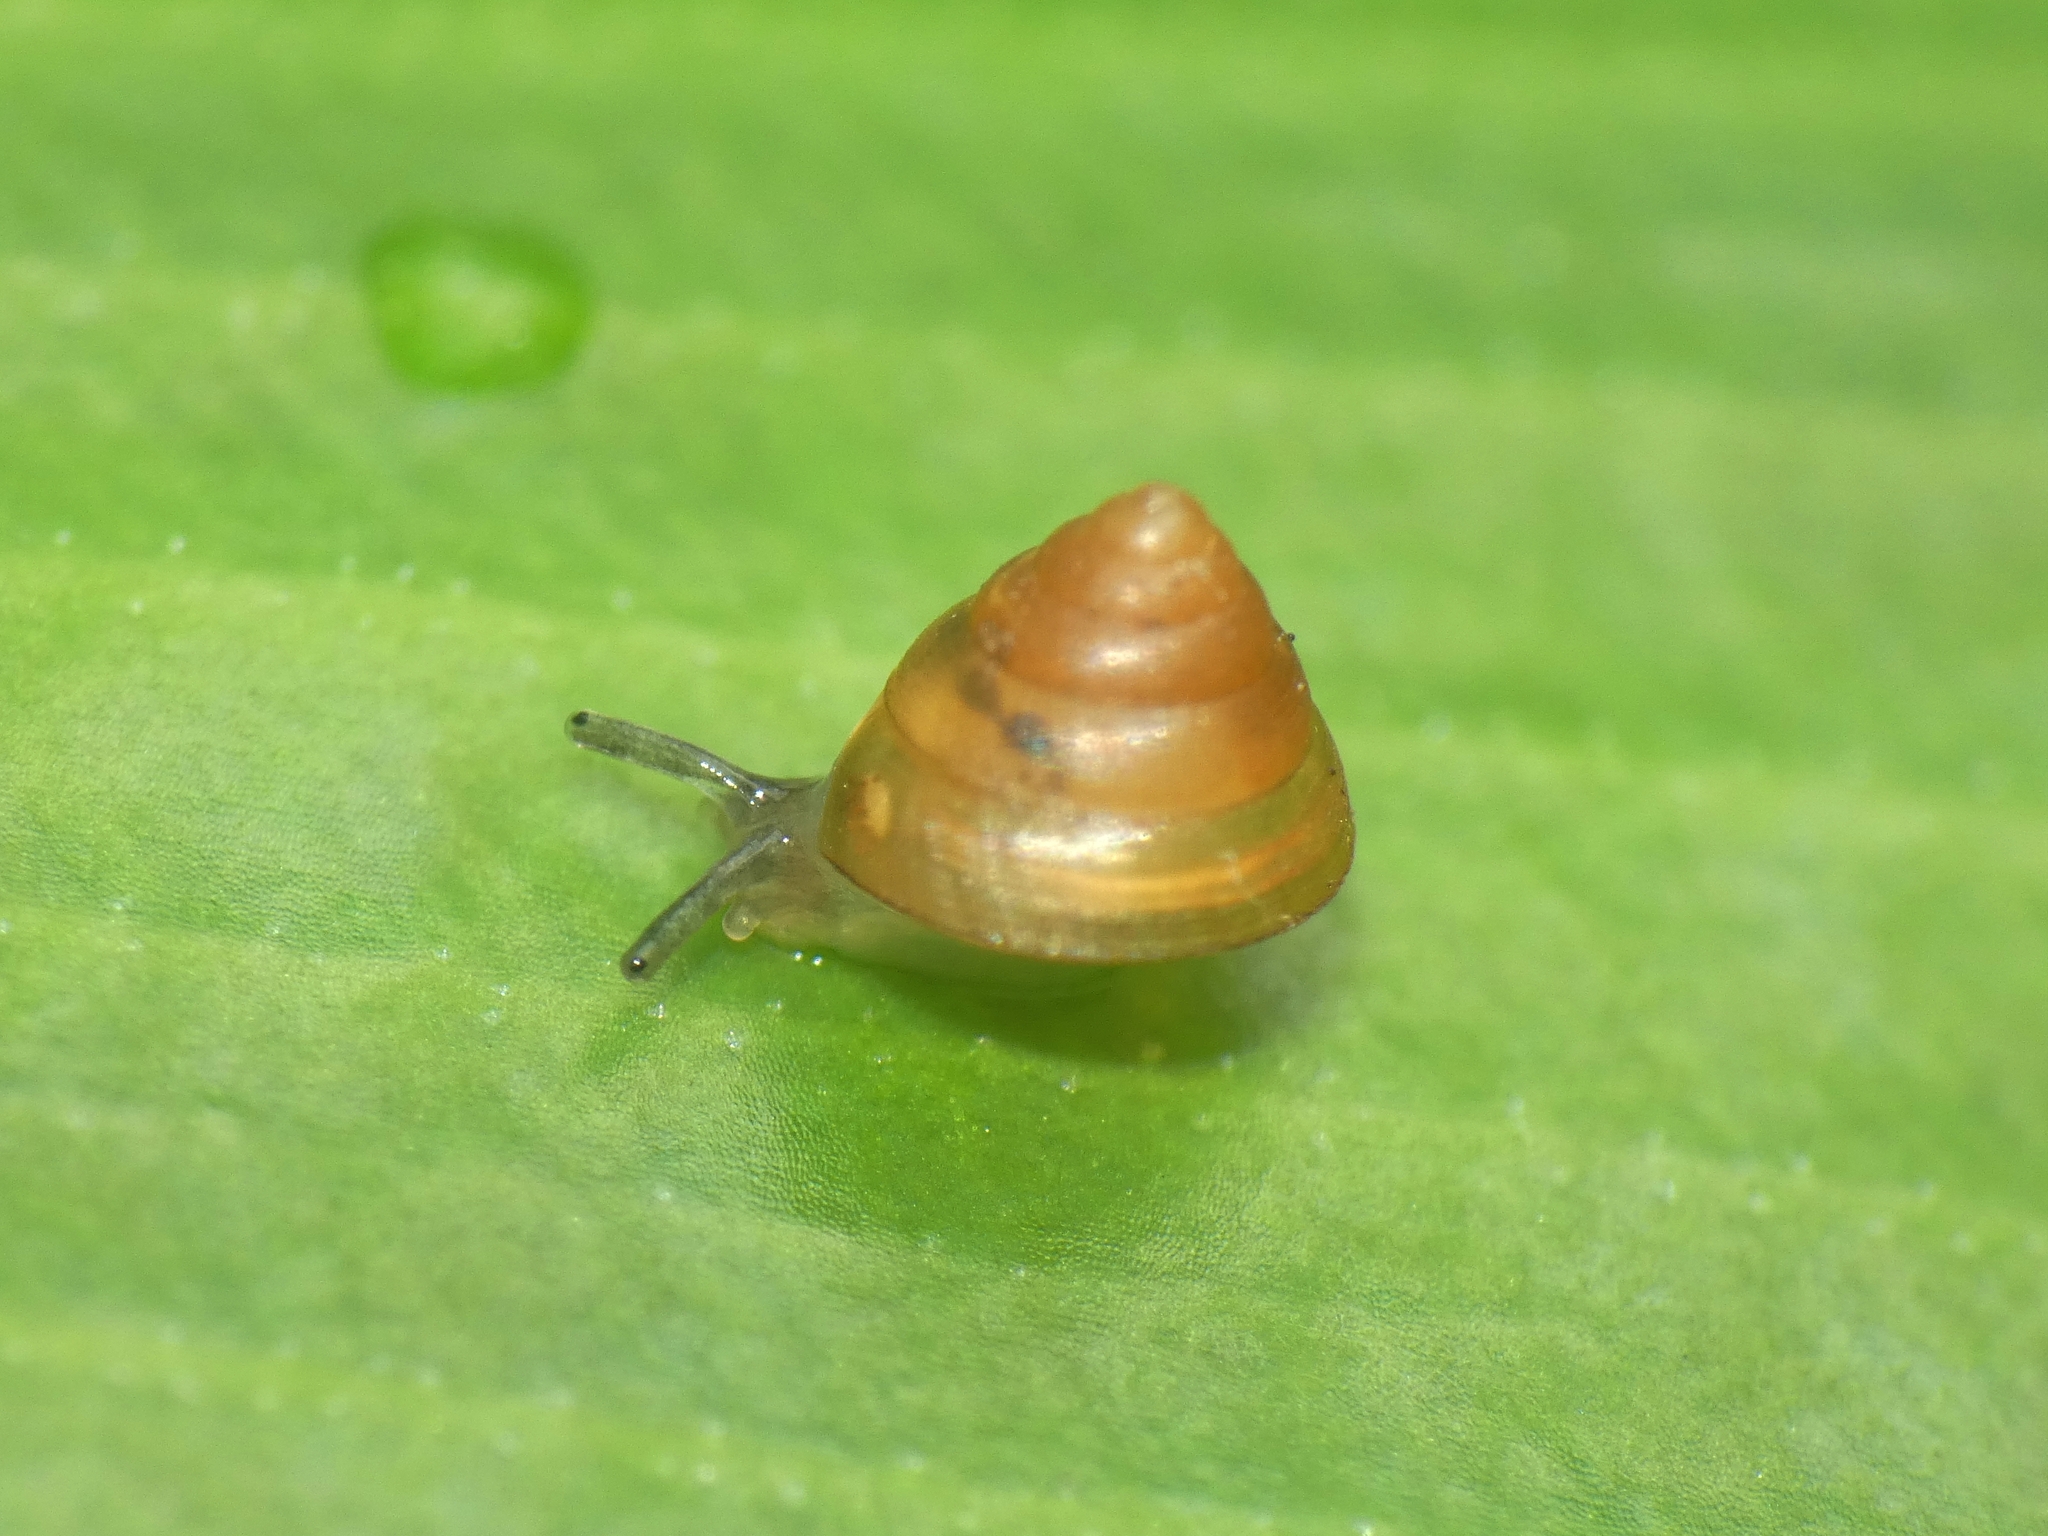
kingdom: Animalia
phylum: Mollusca
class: Gastropoda
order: Stylommatophora
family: Chronidae
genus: Kaliella
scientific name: Kaliella microconus
